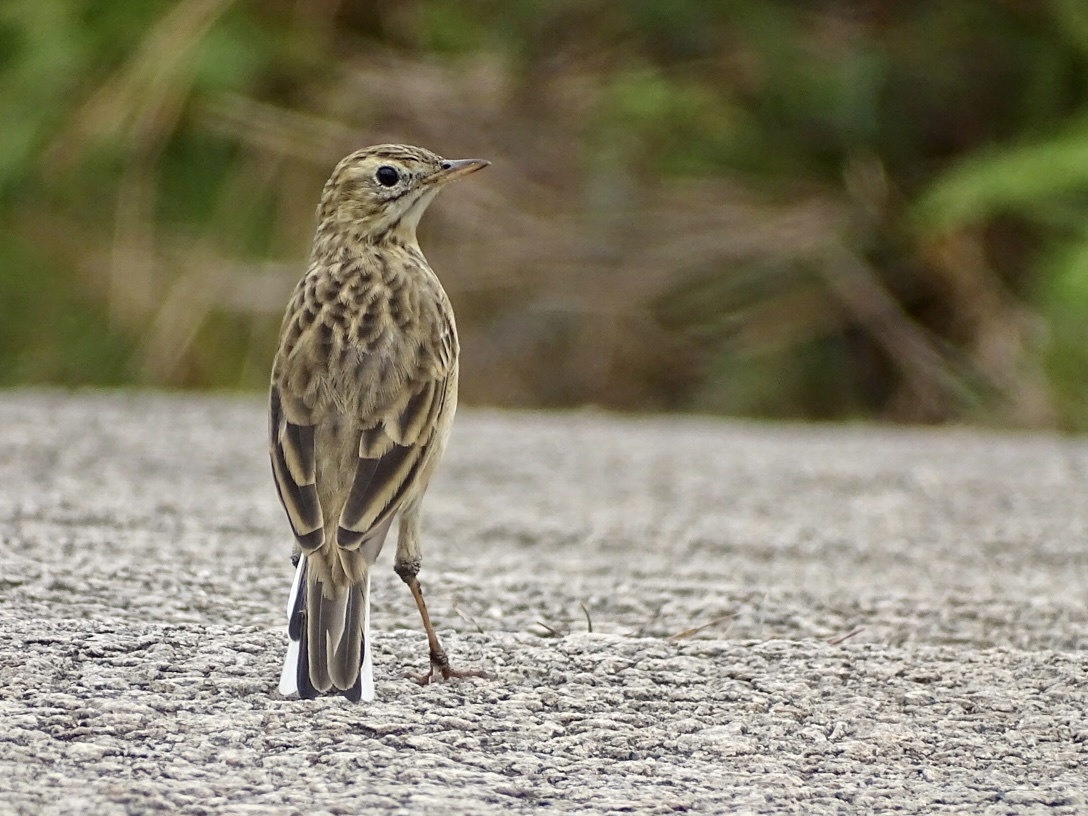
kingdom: Animalia
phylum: Chordata
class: Aves
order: Passeriformes
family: Motacillidae
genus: Anthus
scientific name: Anthus richardi
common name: Richard's pipit
